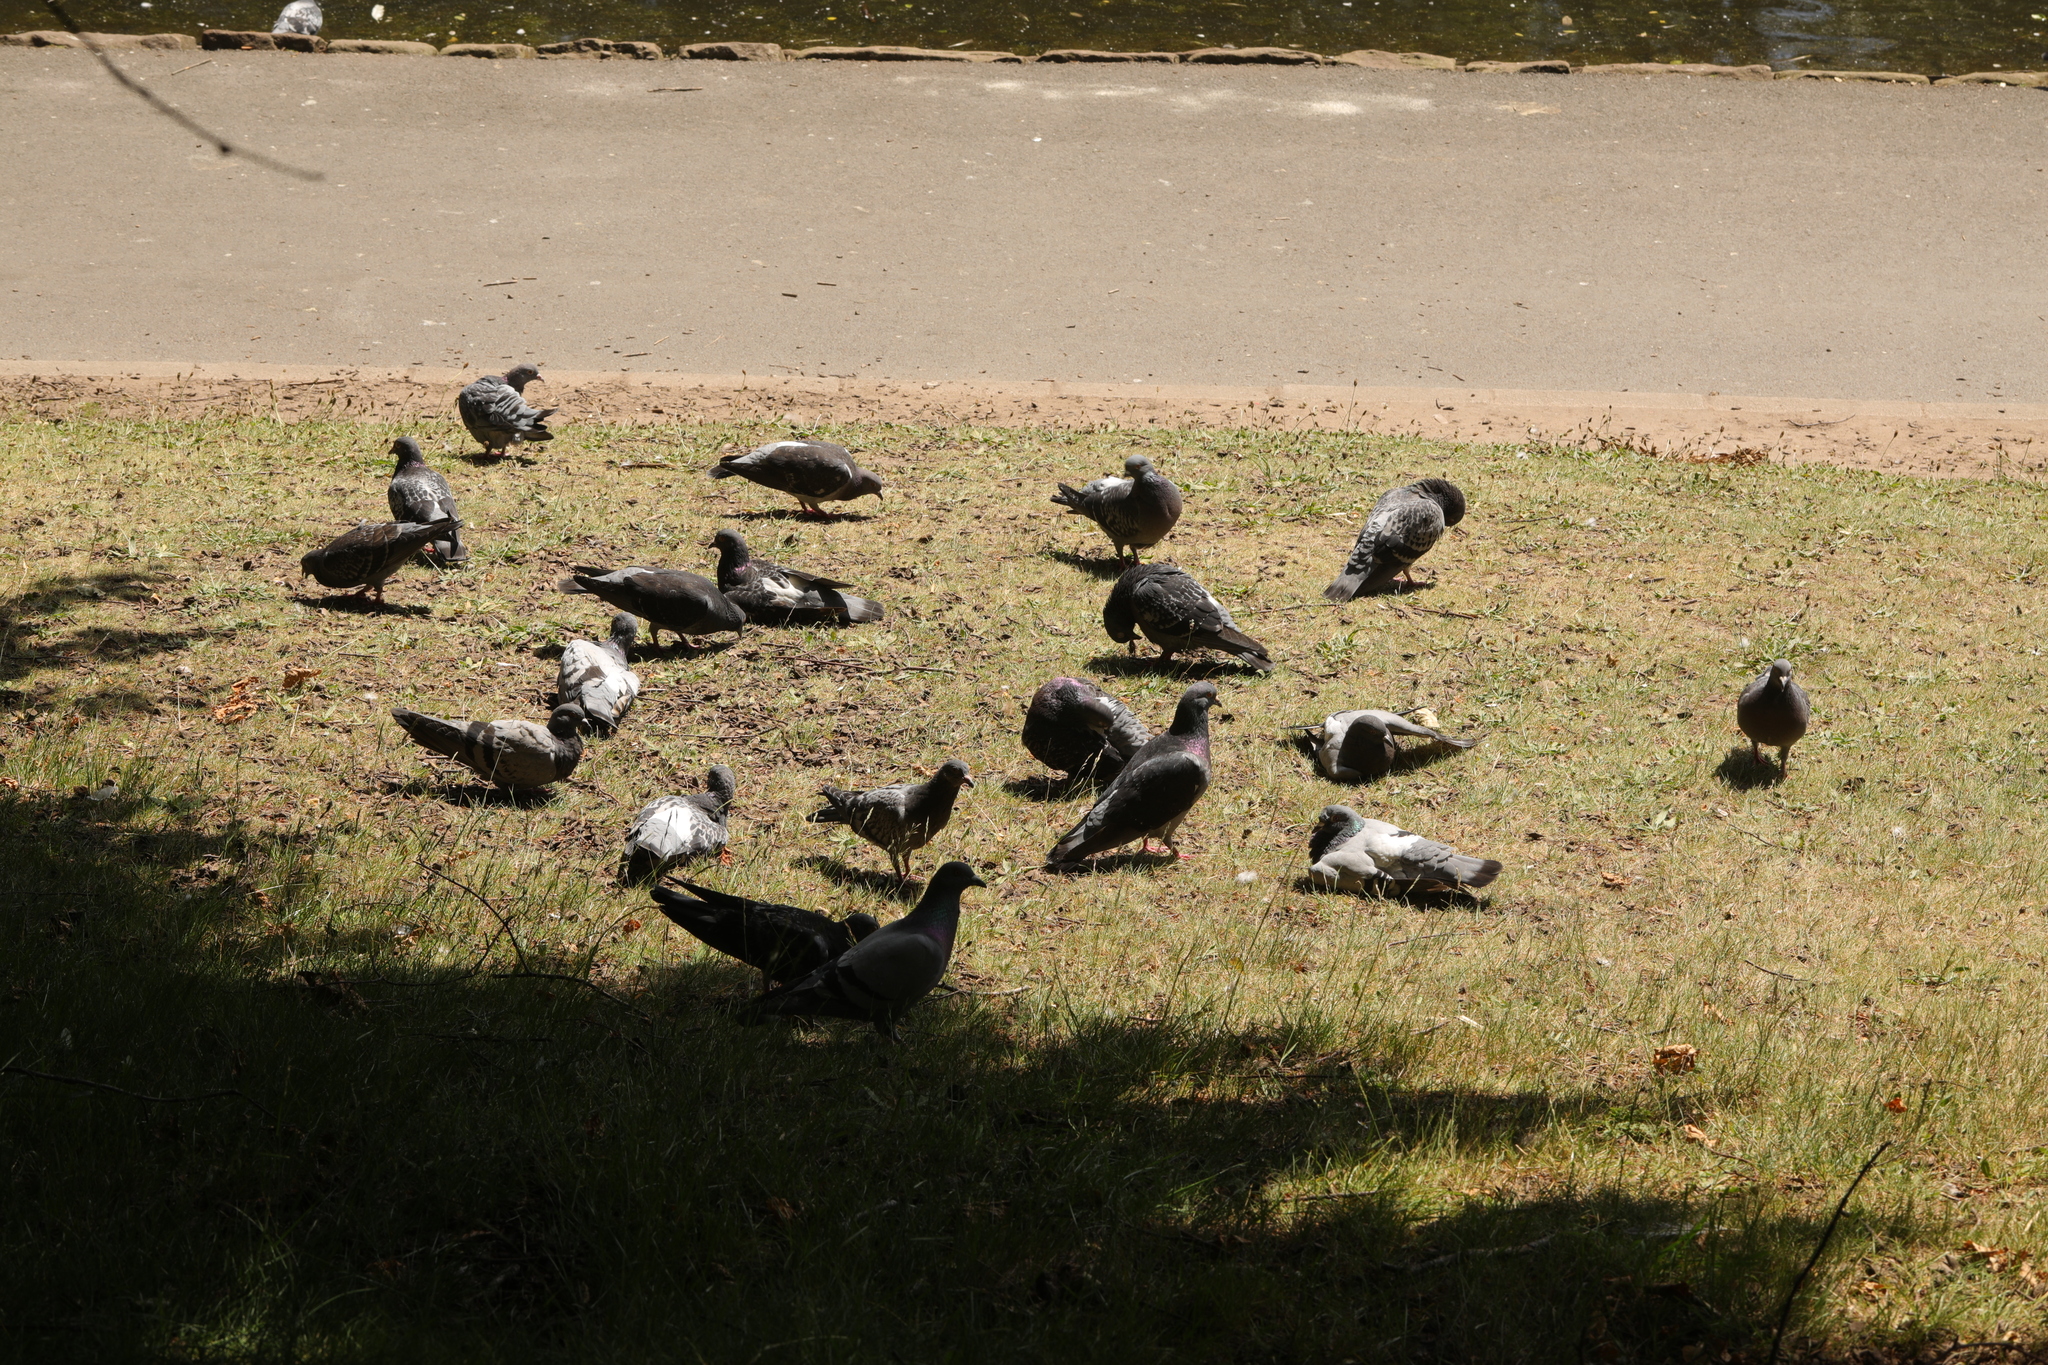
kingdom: Animalia
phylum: Chordata
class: Aves
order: Columbiformes
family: Columbidae
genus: Columba
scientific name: Columba livia
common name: Rock pigeon
